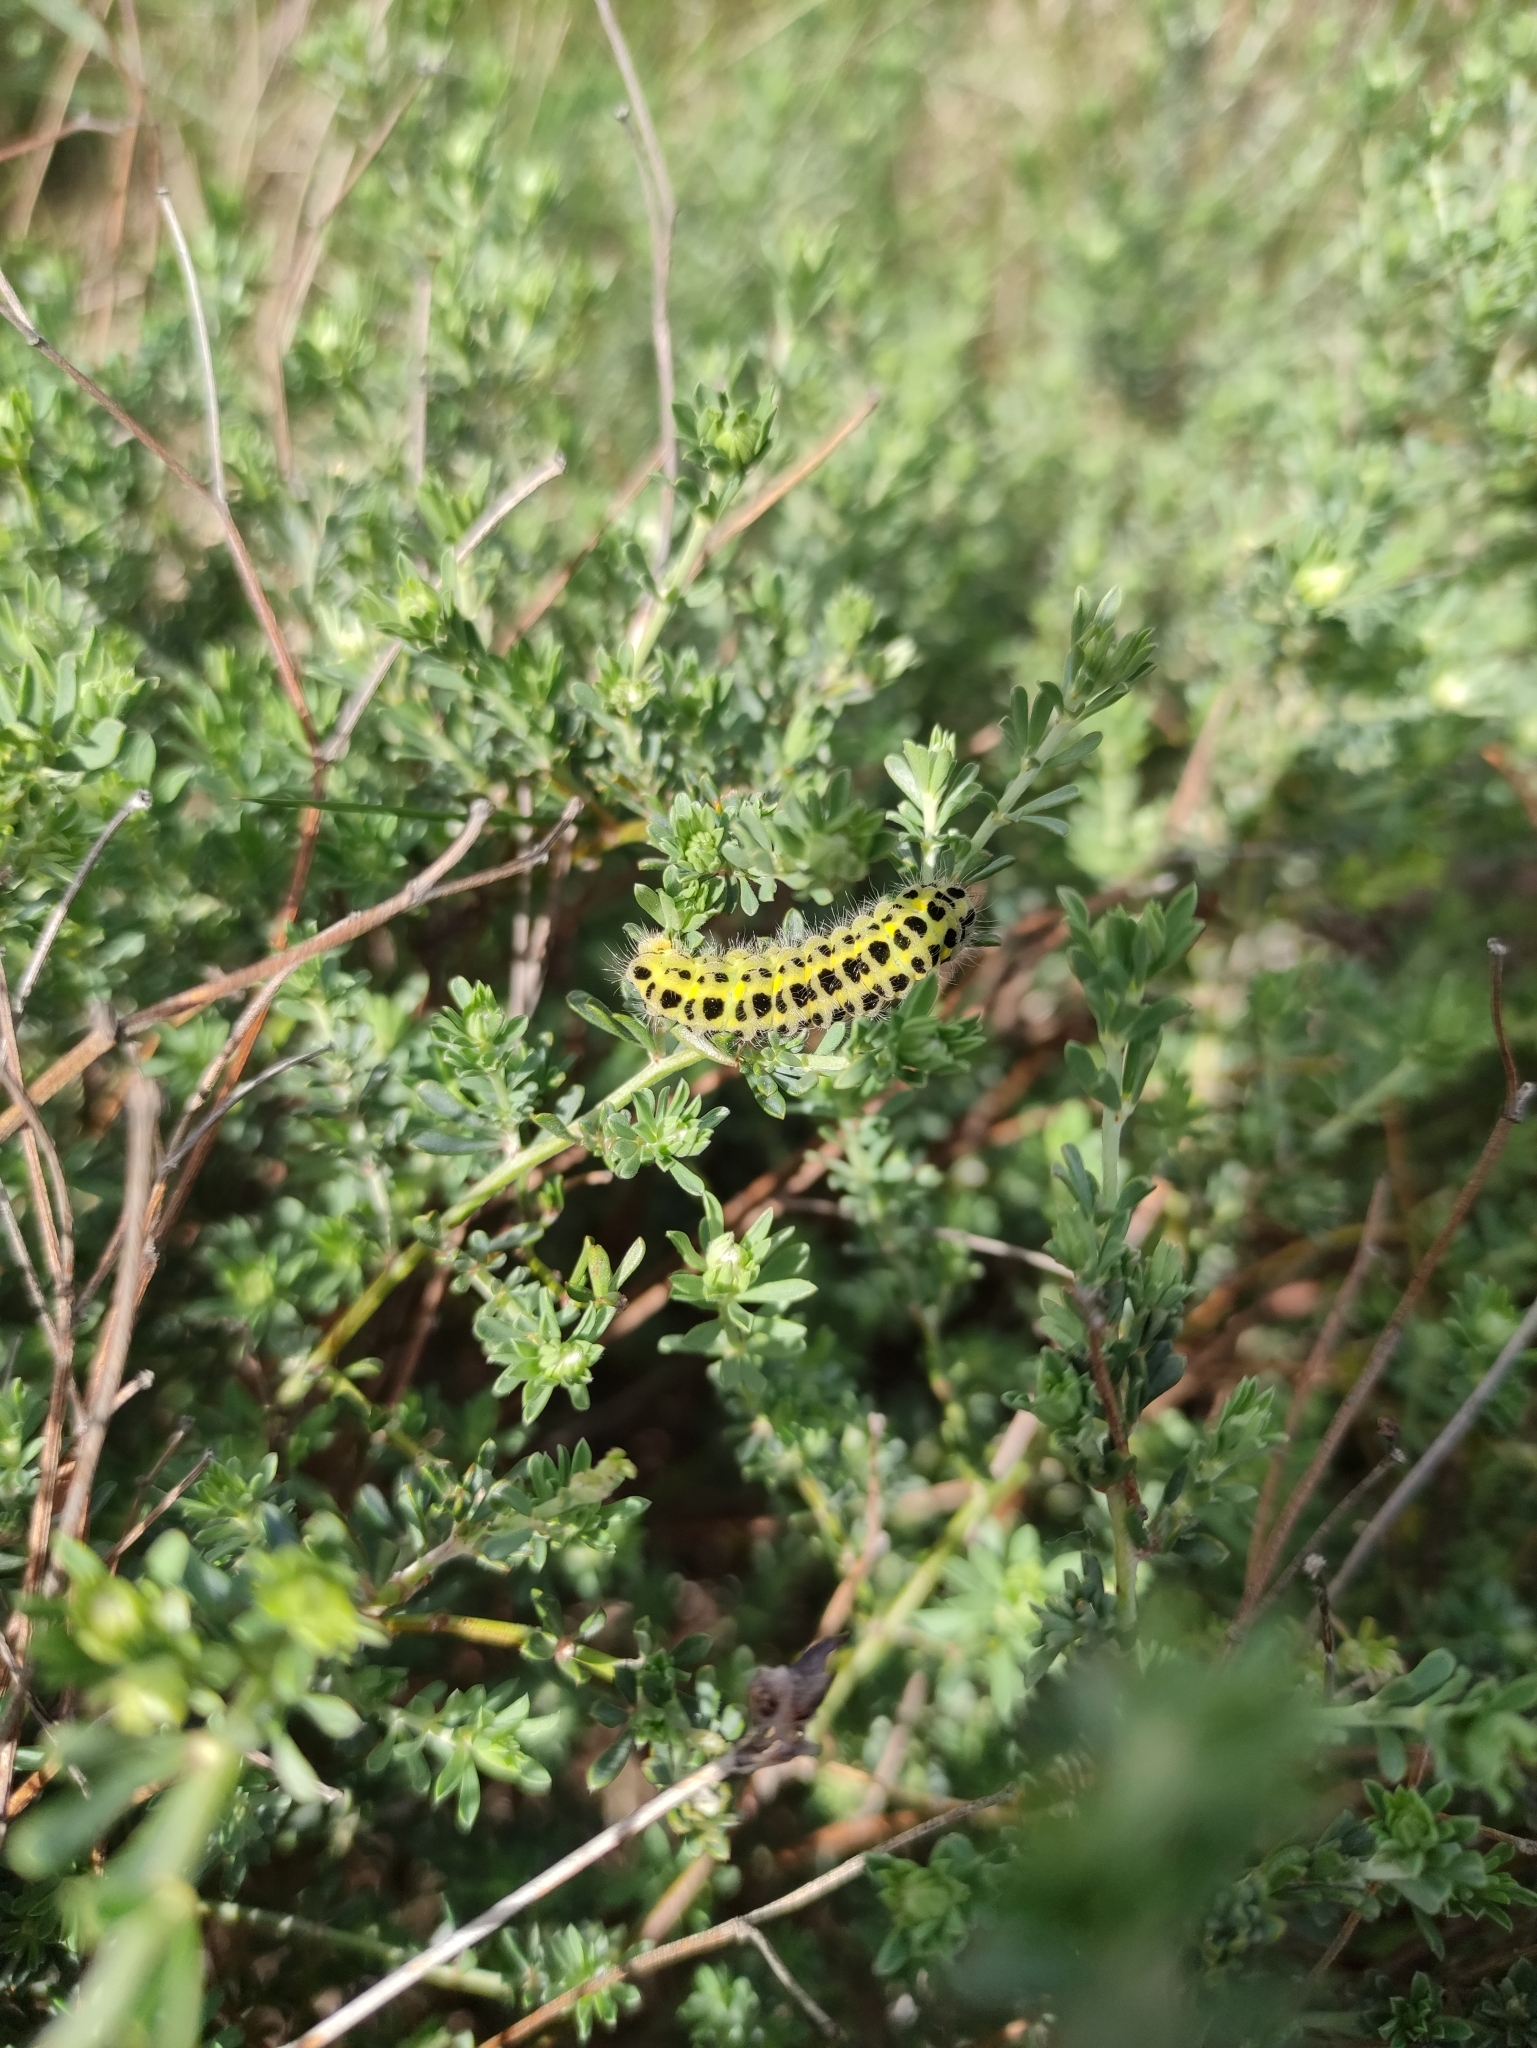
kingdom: Animalia
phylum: Arthropoda
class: Insecta
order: Lepidoptera
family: Zygaenidae
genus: Zygaena
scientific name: Zygaena filipendulae
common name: Six-spot burnet
